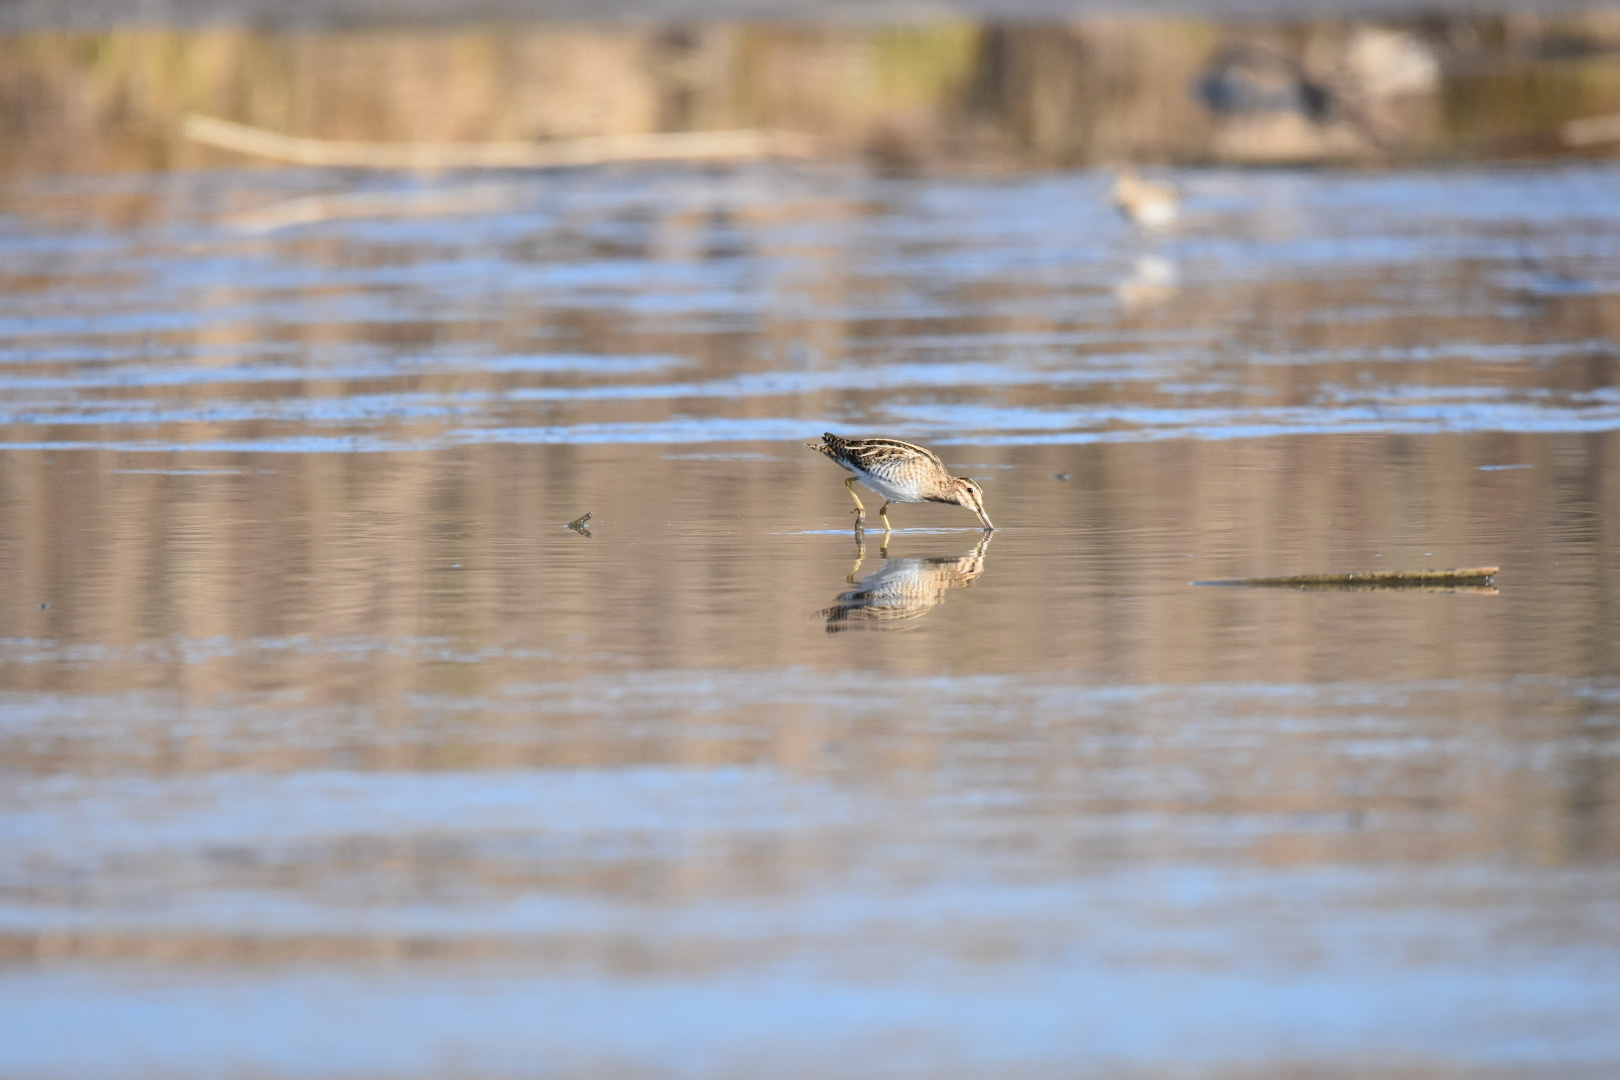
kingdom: Animalia
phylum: Chordata
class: Aves
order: Charadriiformes
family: Scolopacidae
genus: Gallinago
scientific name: Gallinago gallinago
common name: Common snipe
